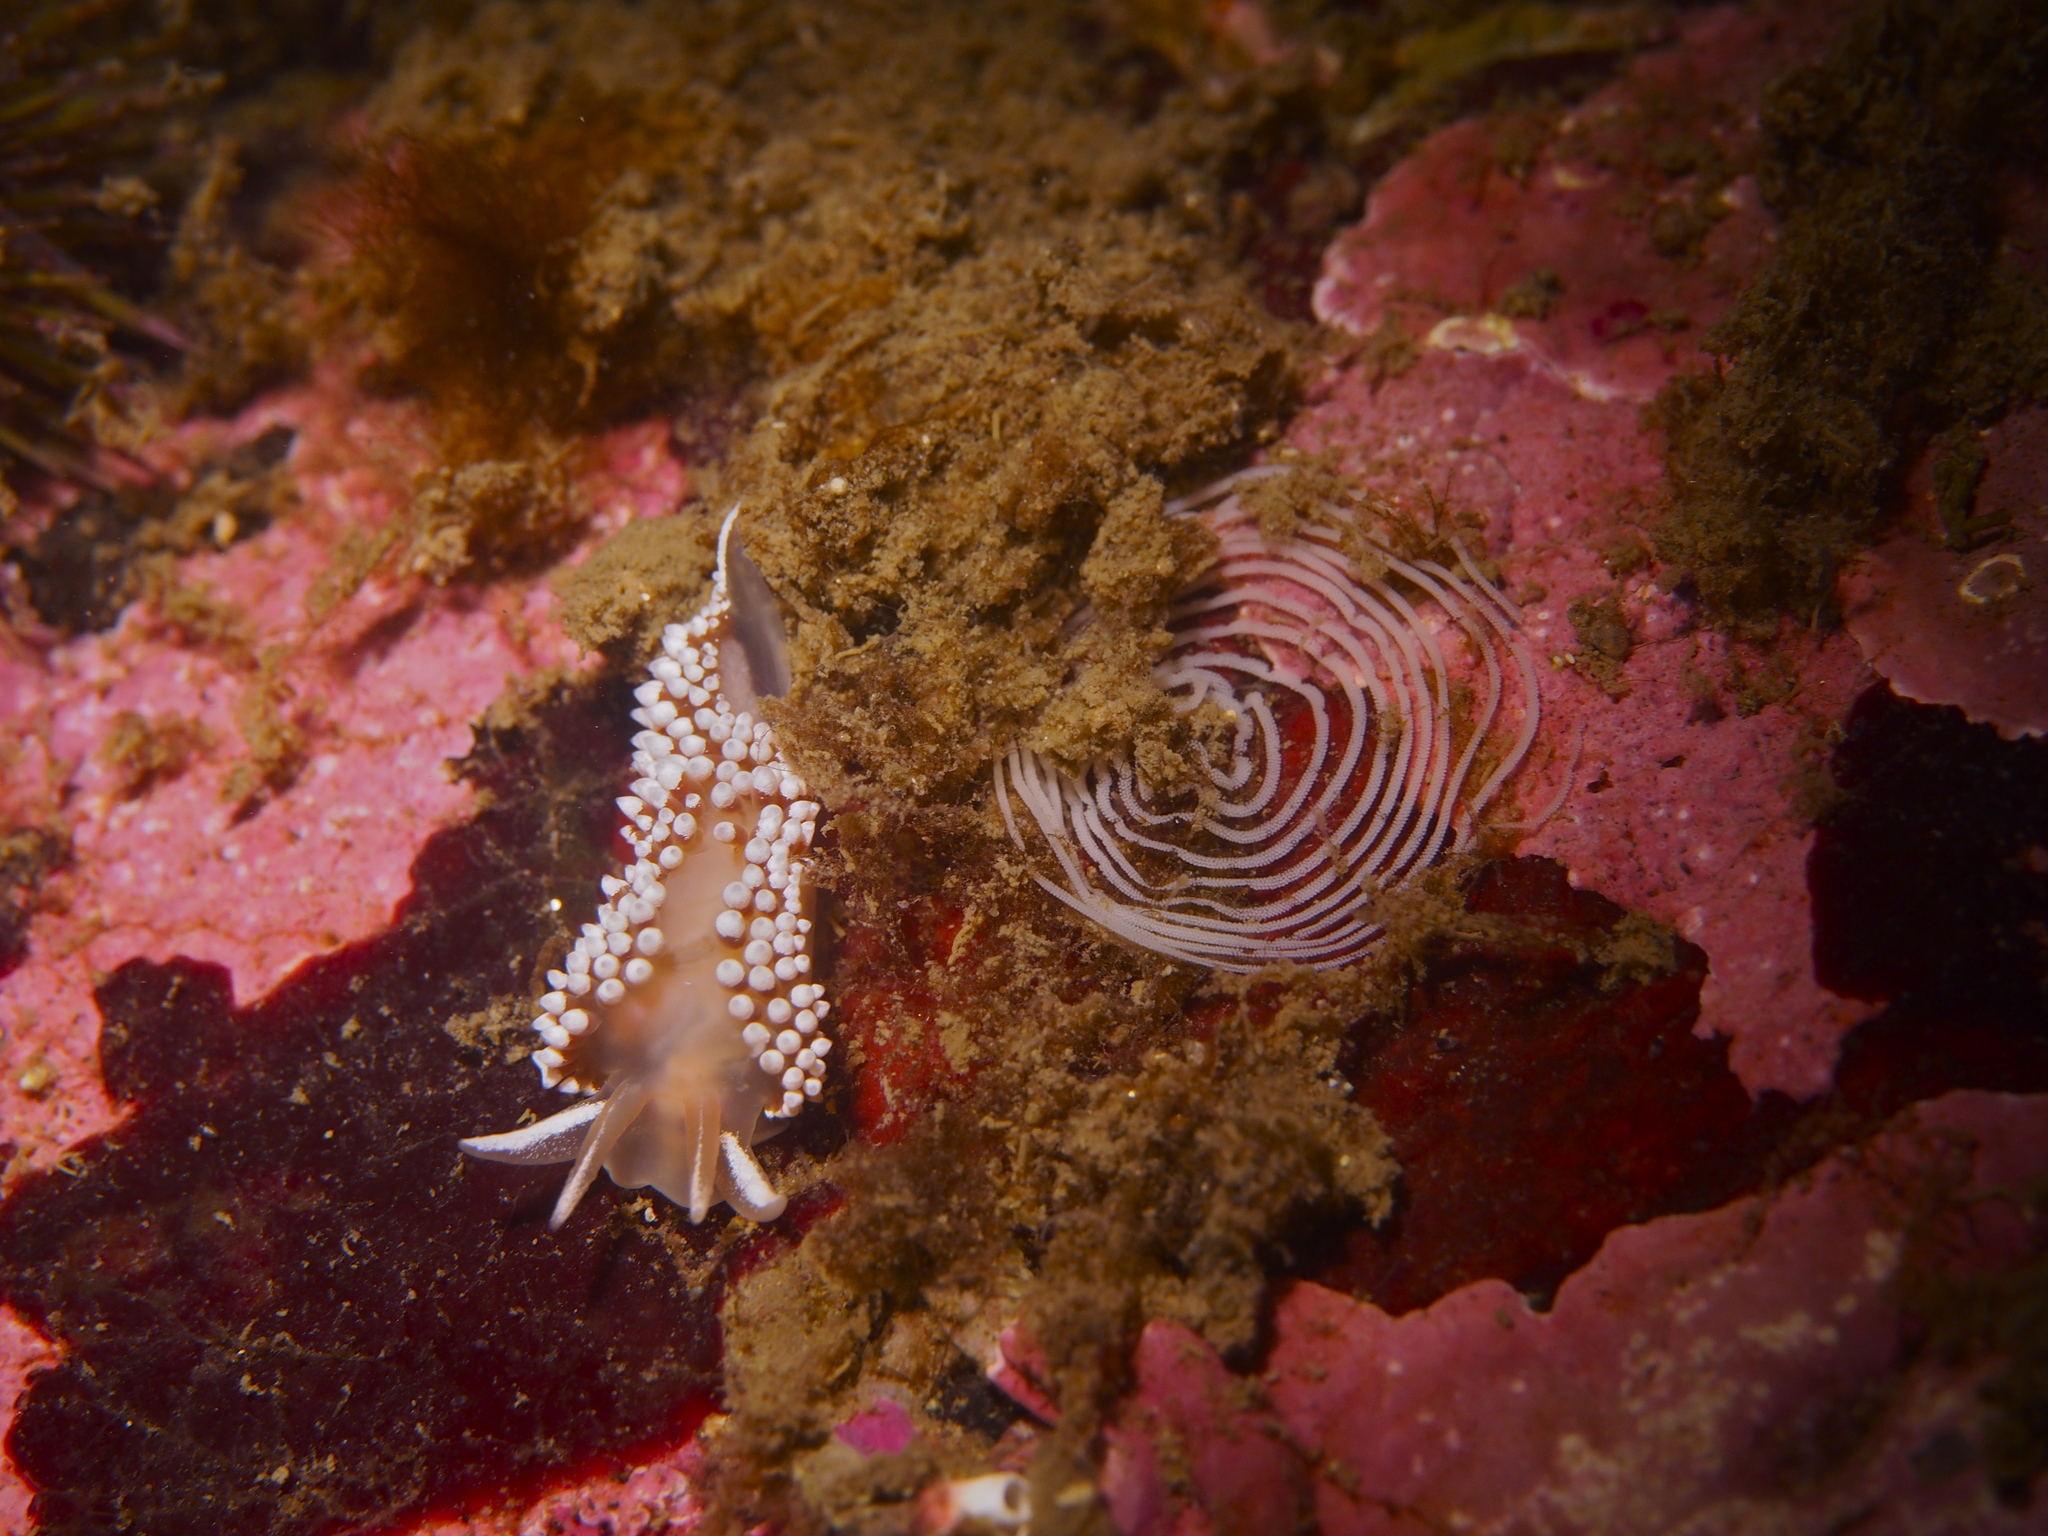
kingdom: Animalia
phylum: Mollusca
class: Gastropoda
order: Nudibranchia
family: Coryphellidae
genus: Coryphella
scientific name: Coryphella verrucosa
